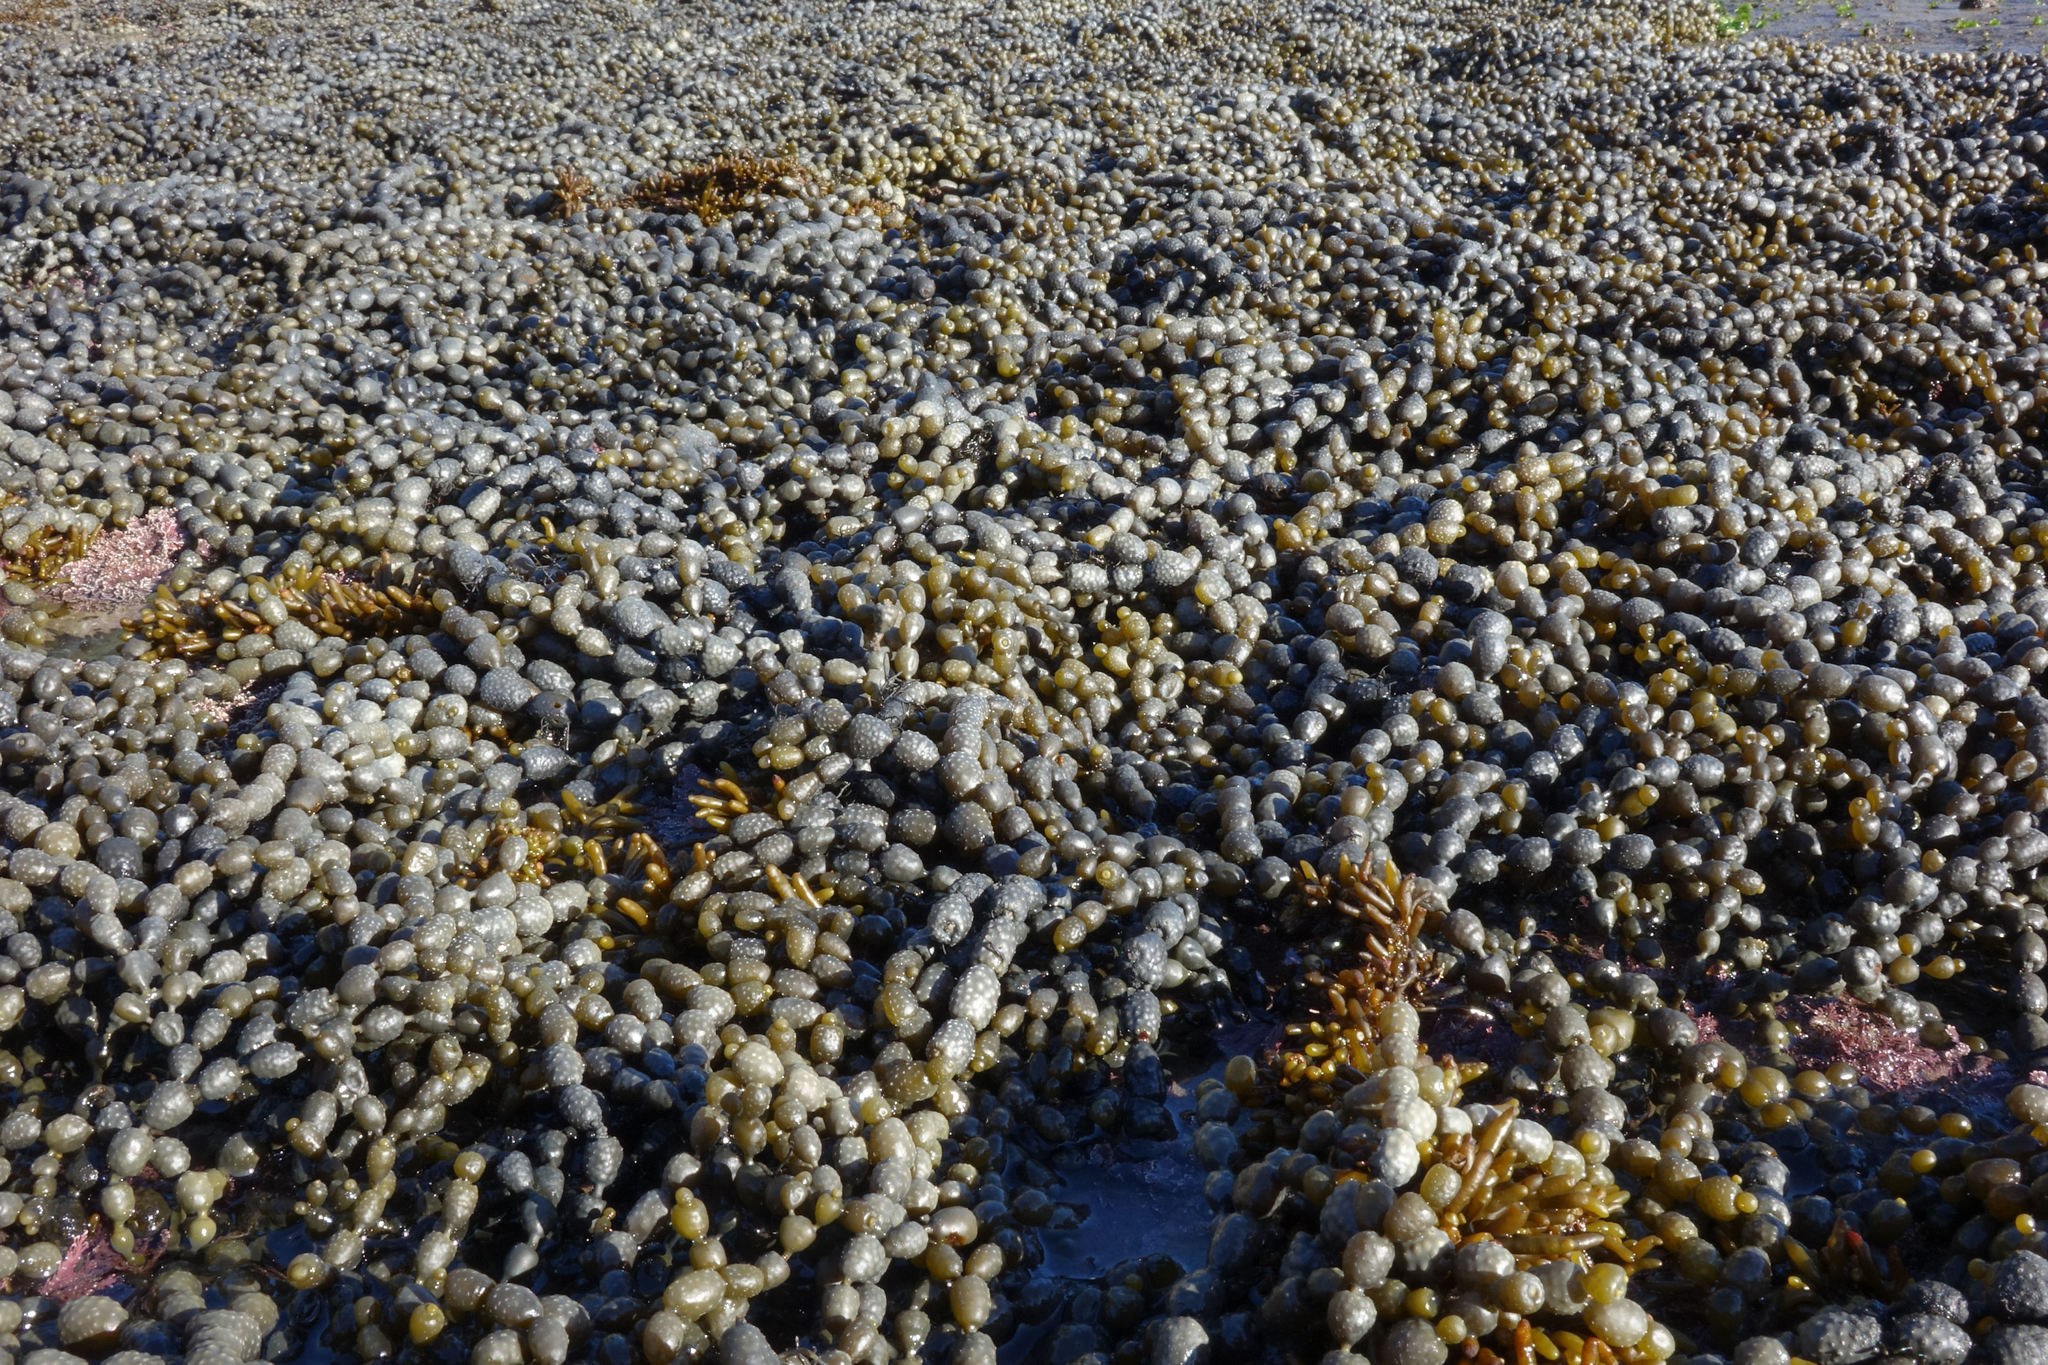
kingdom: Chromista
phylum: Ochrophyta
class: Phaeophyceae
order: Fucales
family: Hormosiraceae
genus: Hormosira
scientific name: Hormosira banksii
